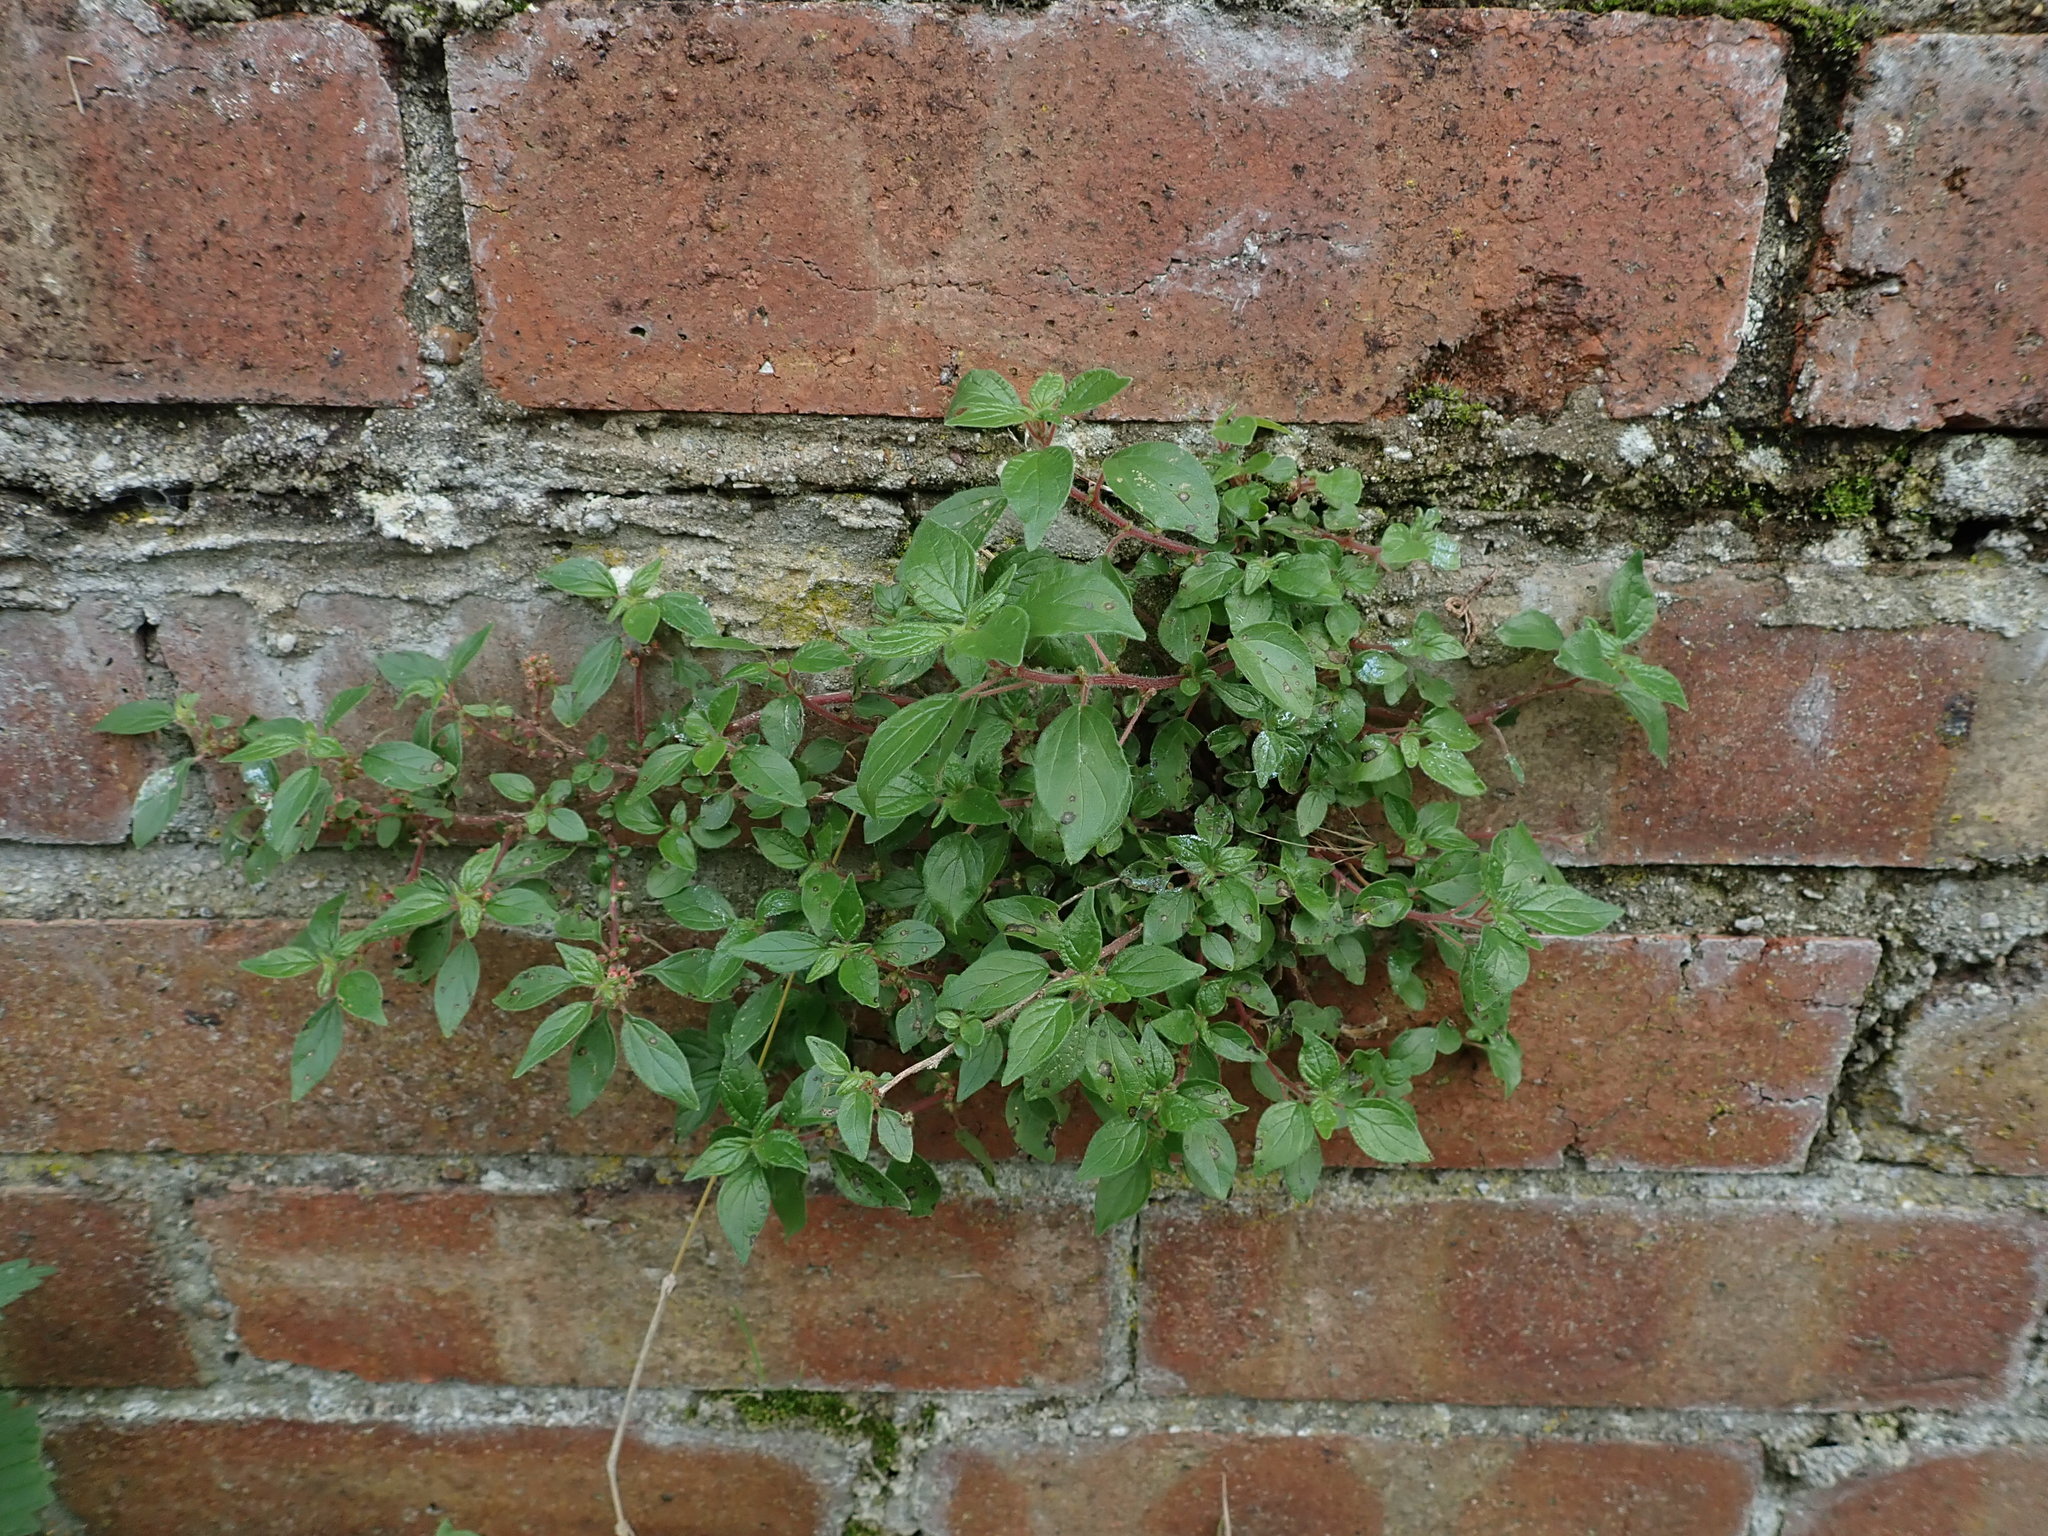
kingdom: Plantae
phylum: Tracheophyta
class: Magnoliopsida
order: Rosales
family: Urticaceae
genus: Parietaria
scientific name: Parietaria judaica
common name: Pellitory-of-the-wall
